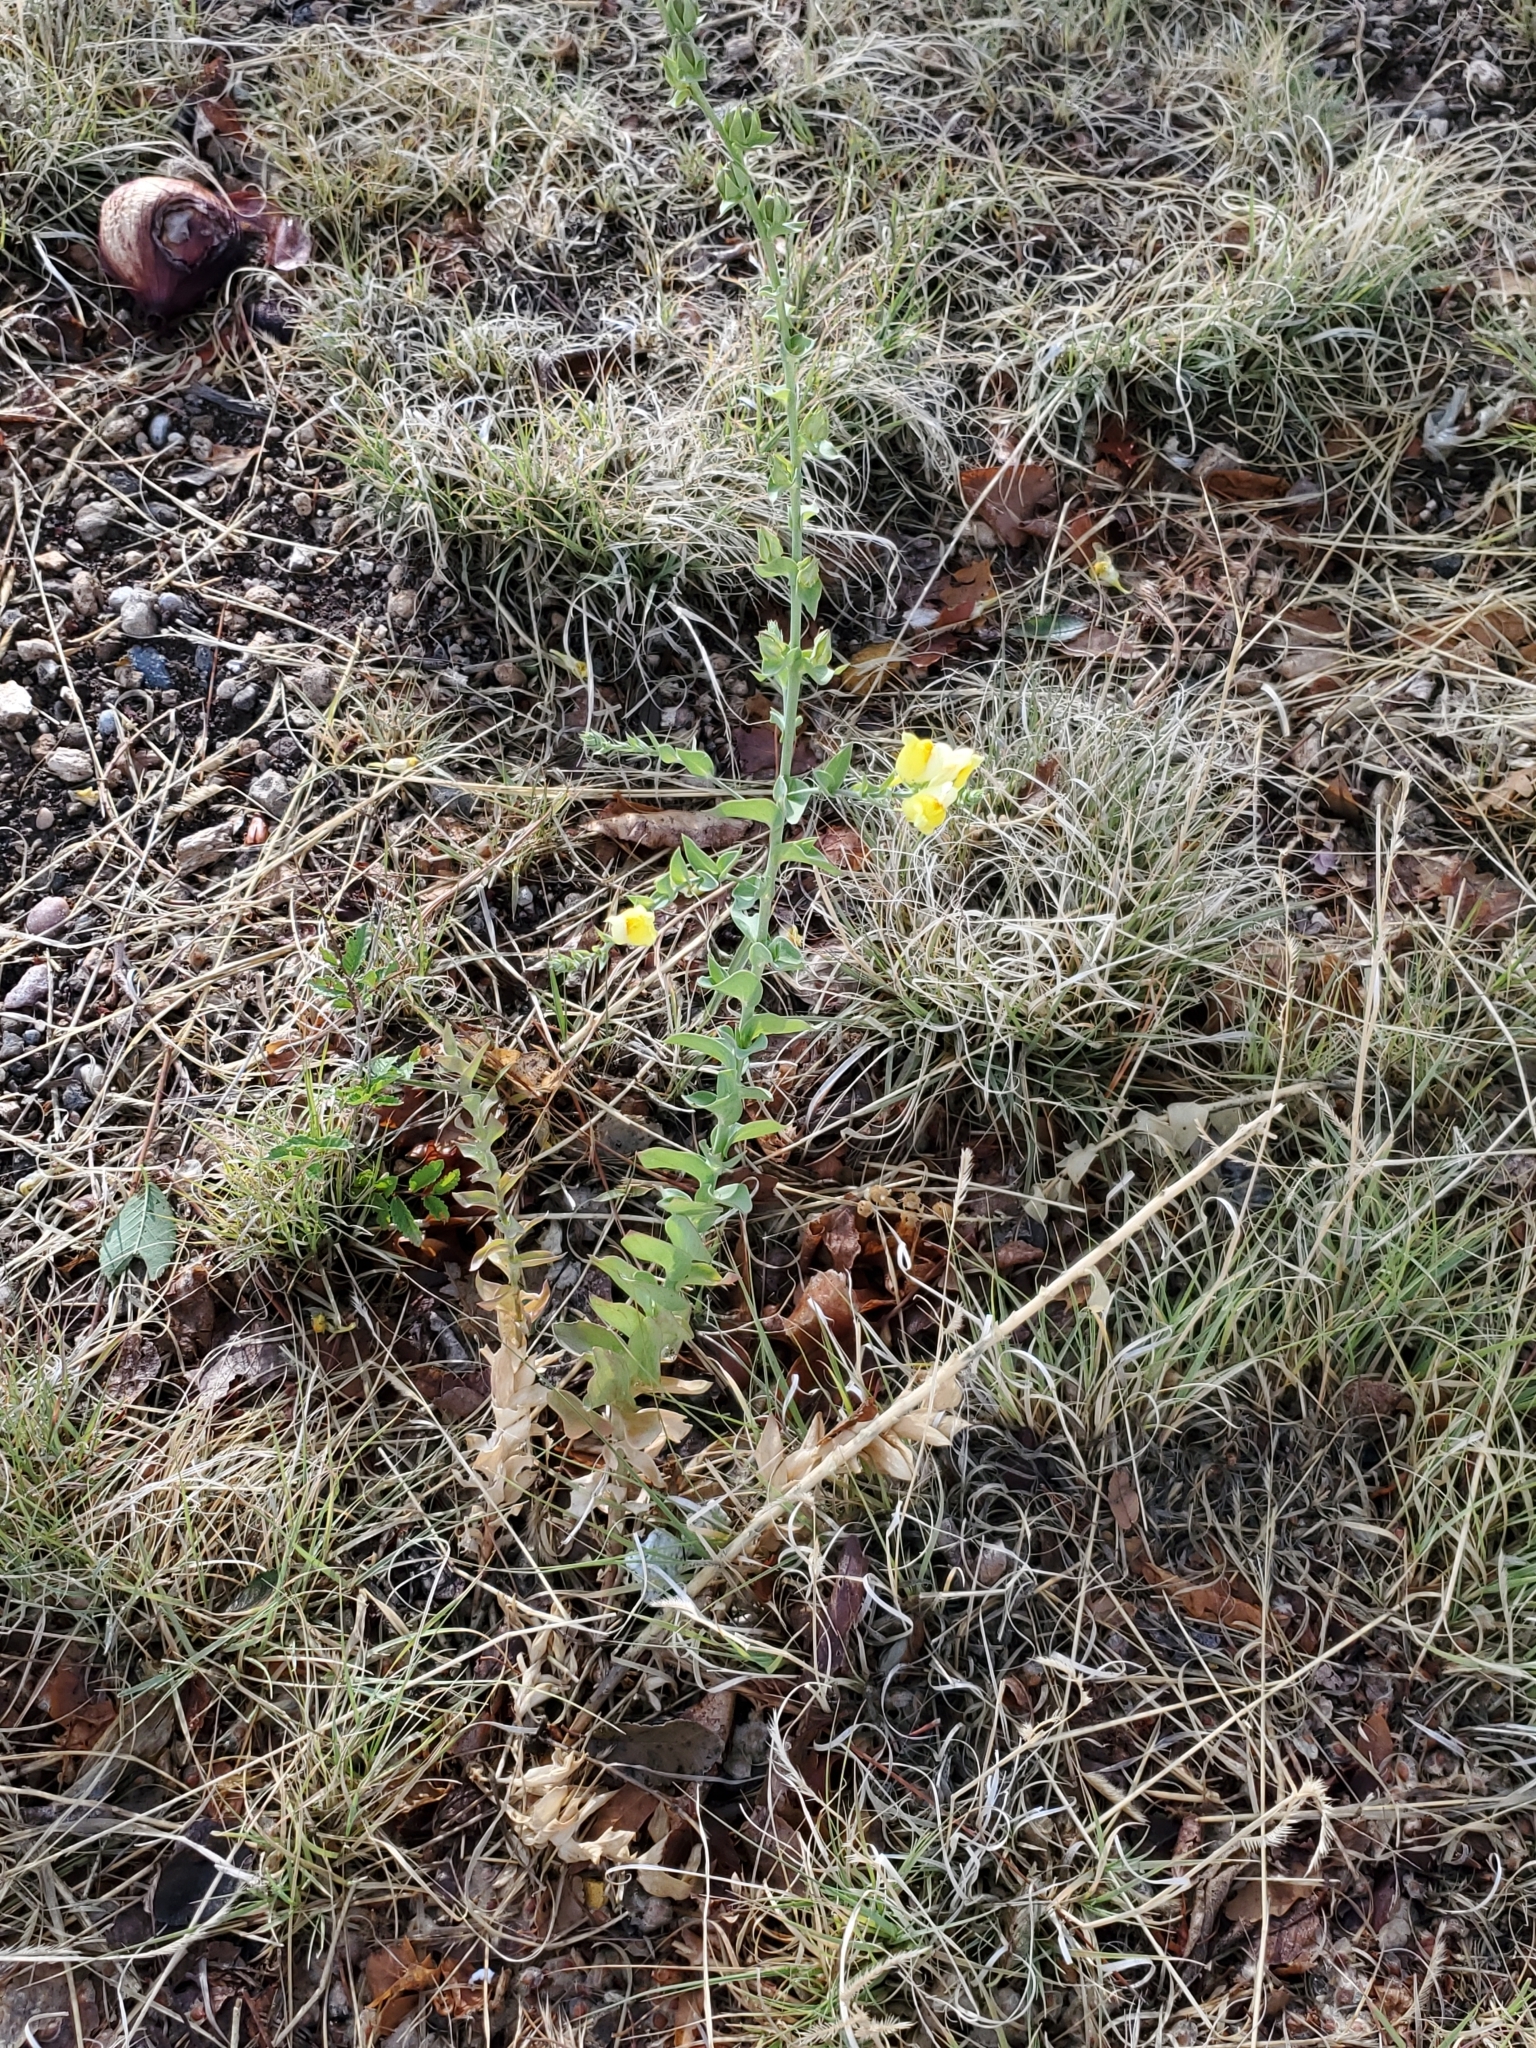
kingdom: Plantae
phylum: Tracheophyta
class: Magnoliopsida
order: Lamiales
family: Plantaginaceae
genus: Linaria
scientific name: Linaria dalmatica
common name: Dalmatian toadflax
